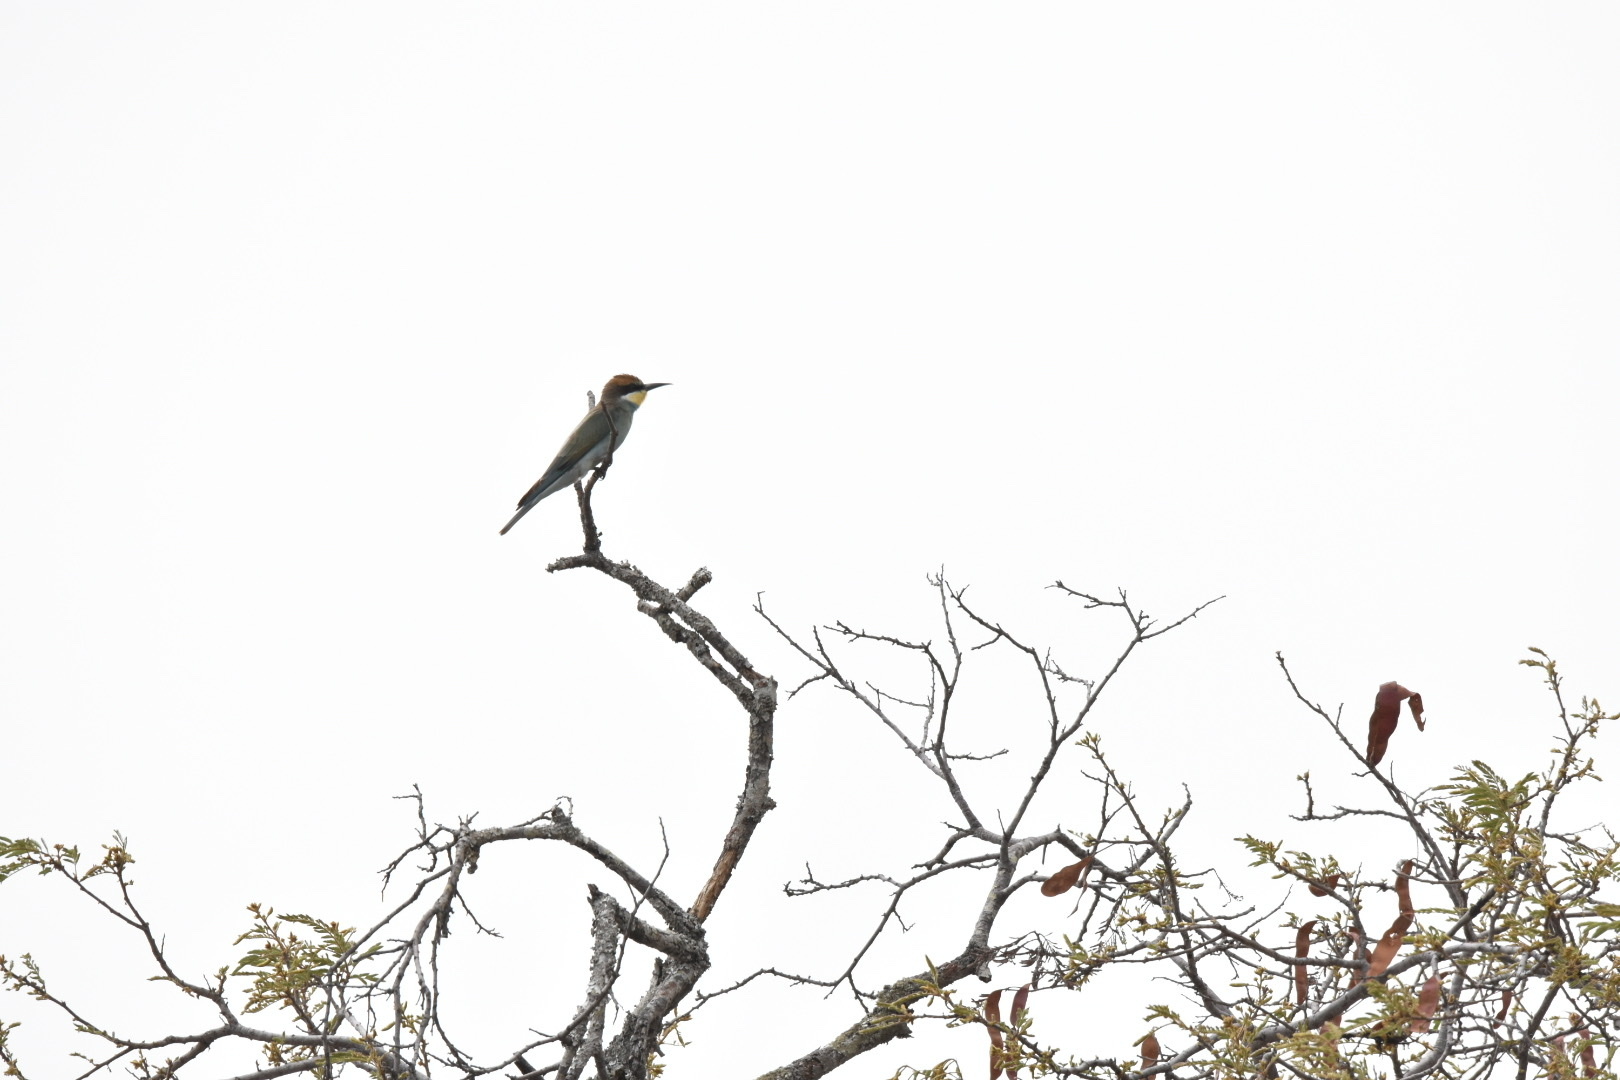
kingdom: Animalia
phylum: Chordata
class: Aves
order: Coraciiformes
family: Meropidae
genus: Merops
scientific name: Merops apiaster
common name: European bee-eater
